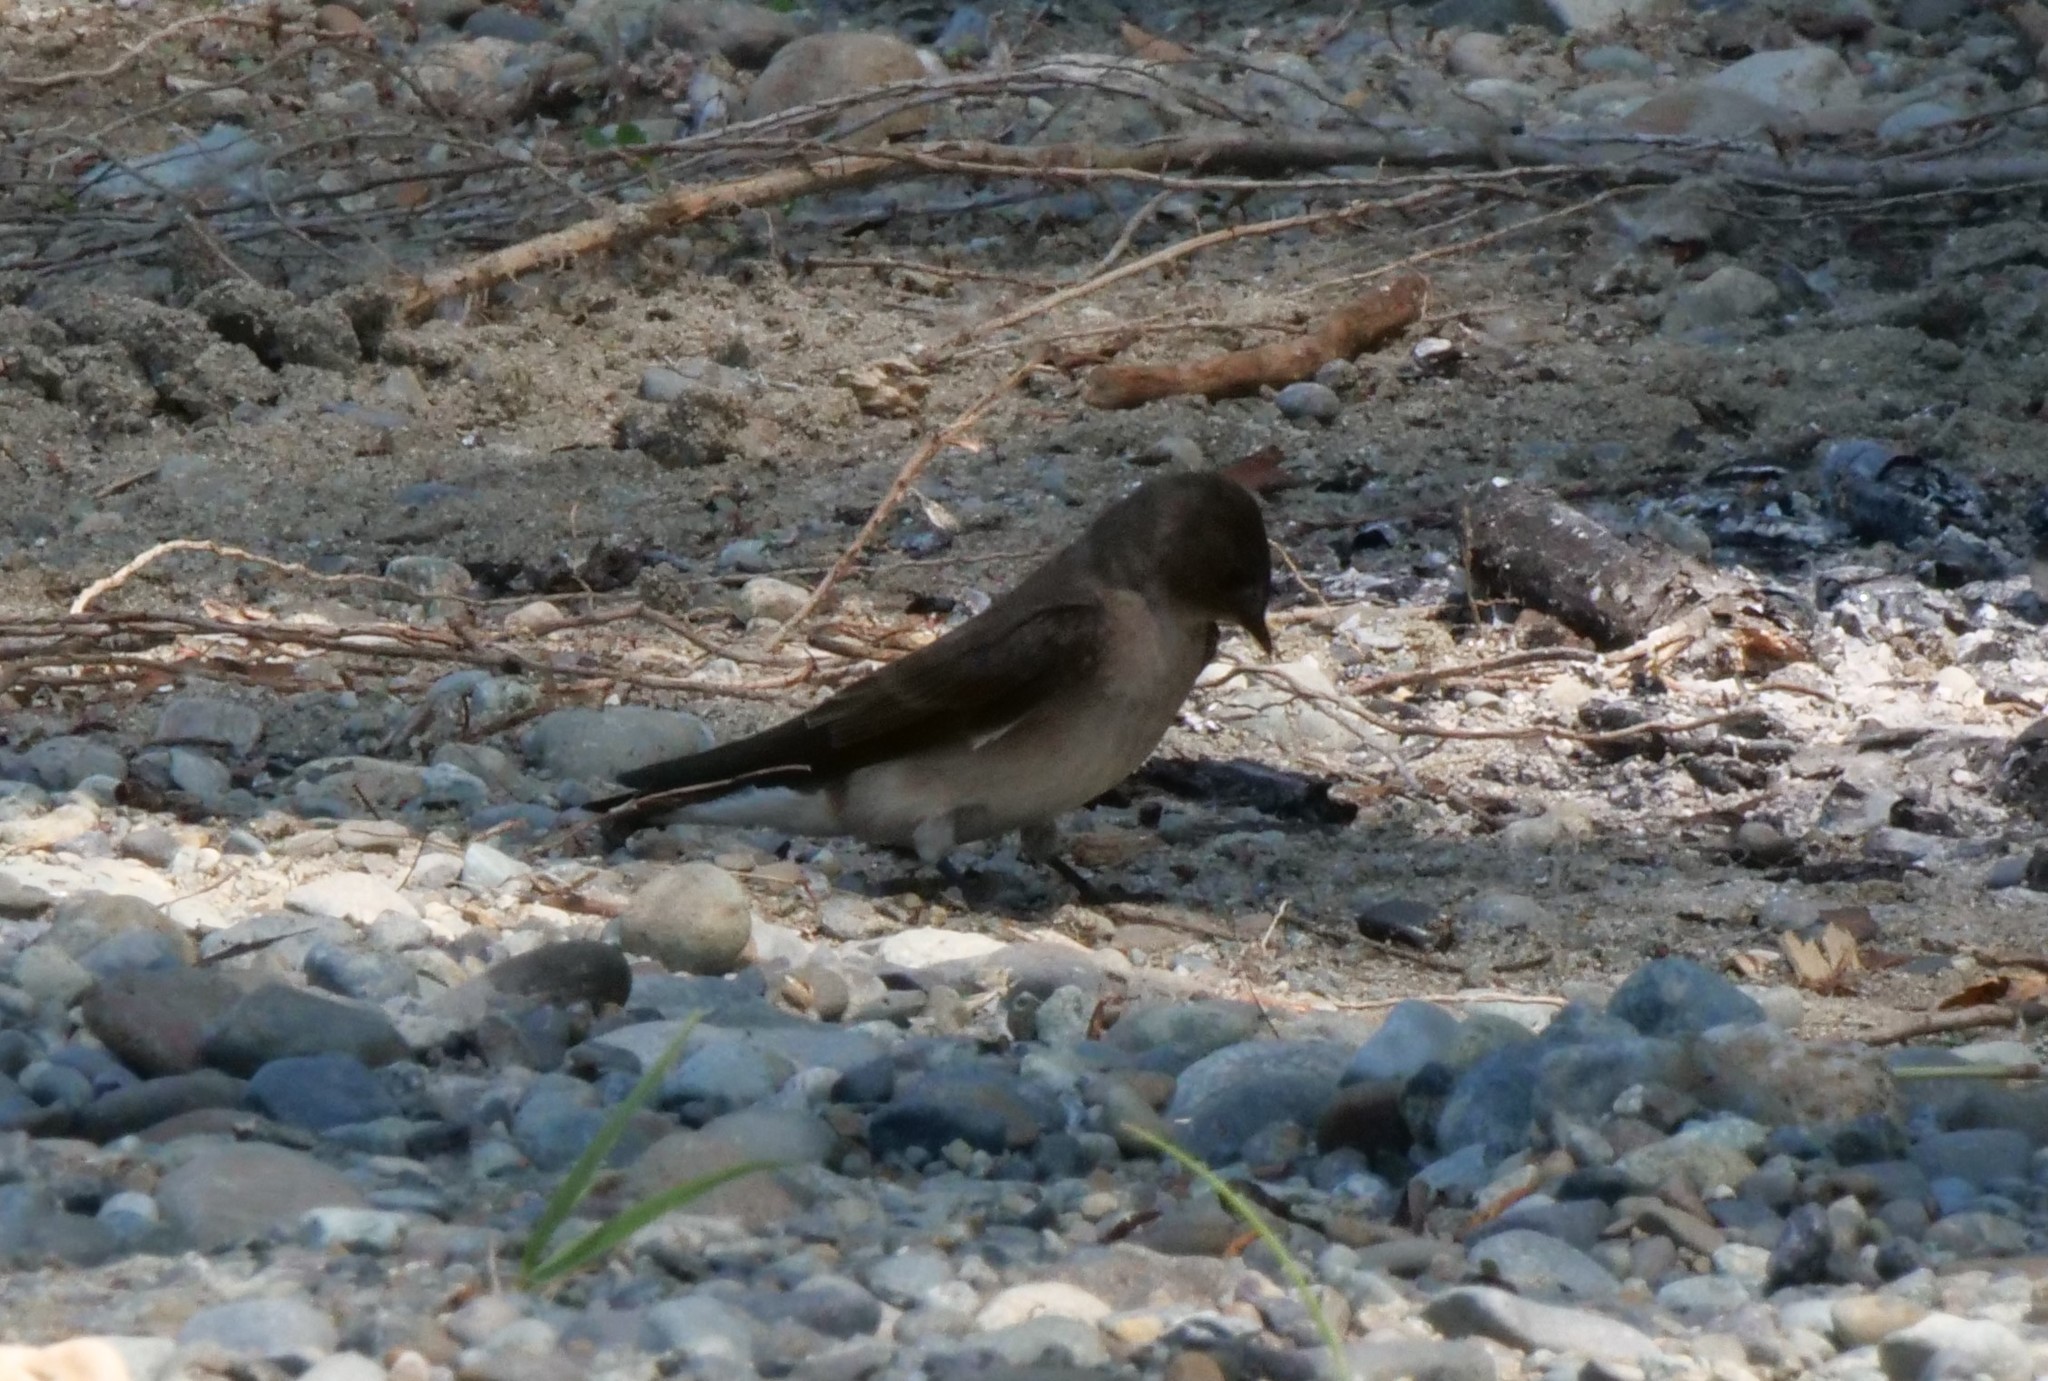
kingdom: Animalia
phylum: Chordata
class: Aves
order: Passeriformes
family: Hirundinidae
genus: Stelgidopteryx
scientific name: Stelgidopteryx serripennis
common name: Northern rough-winged swallow
